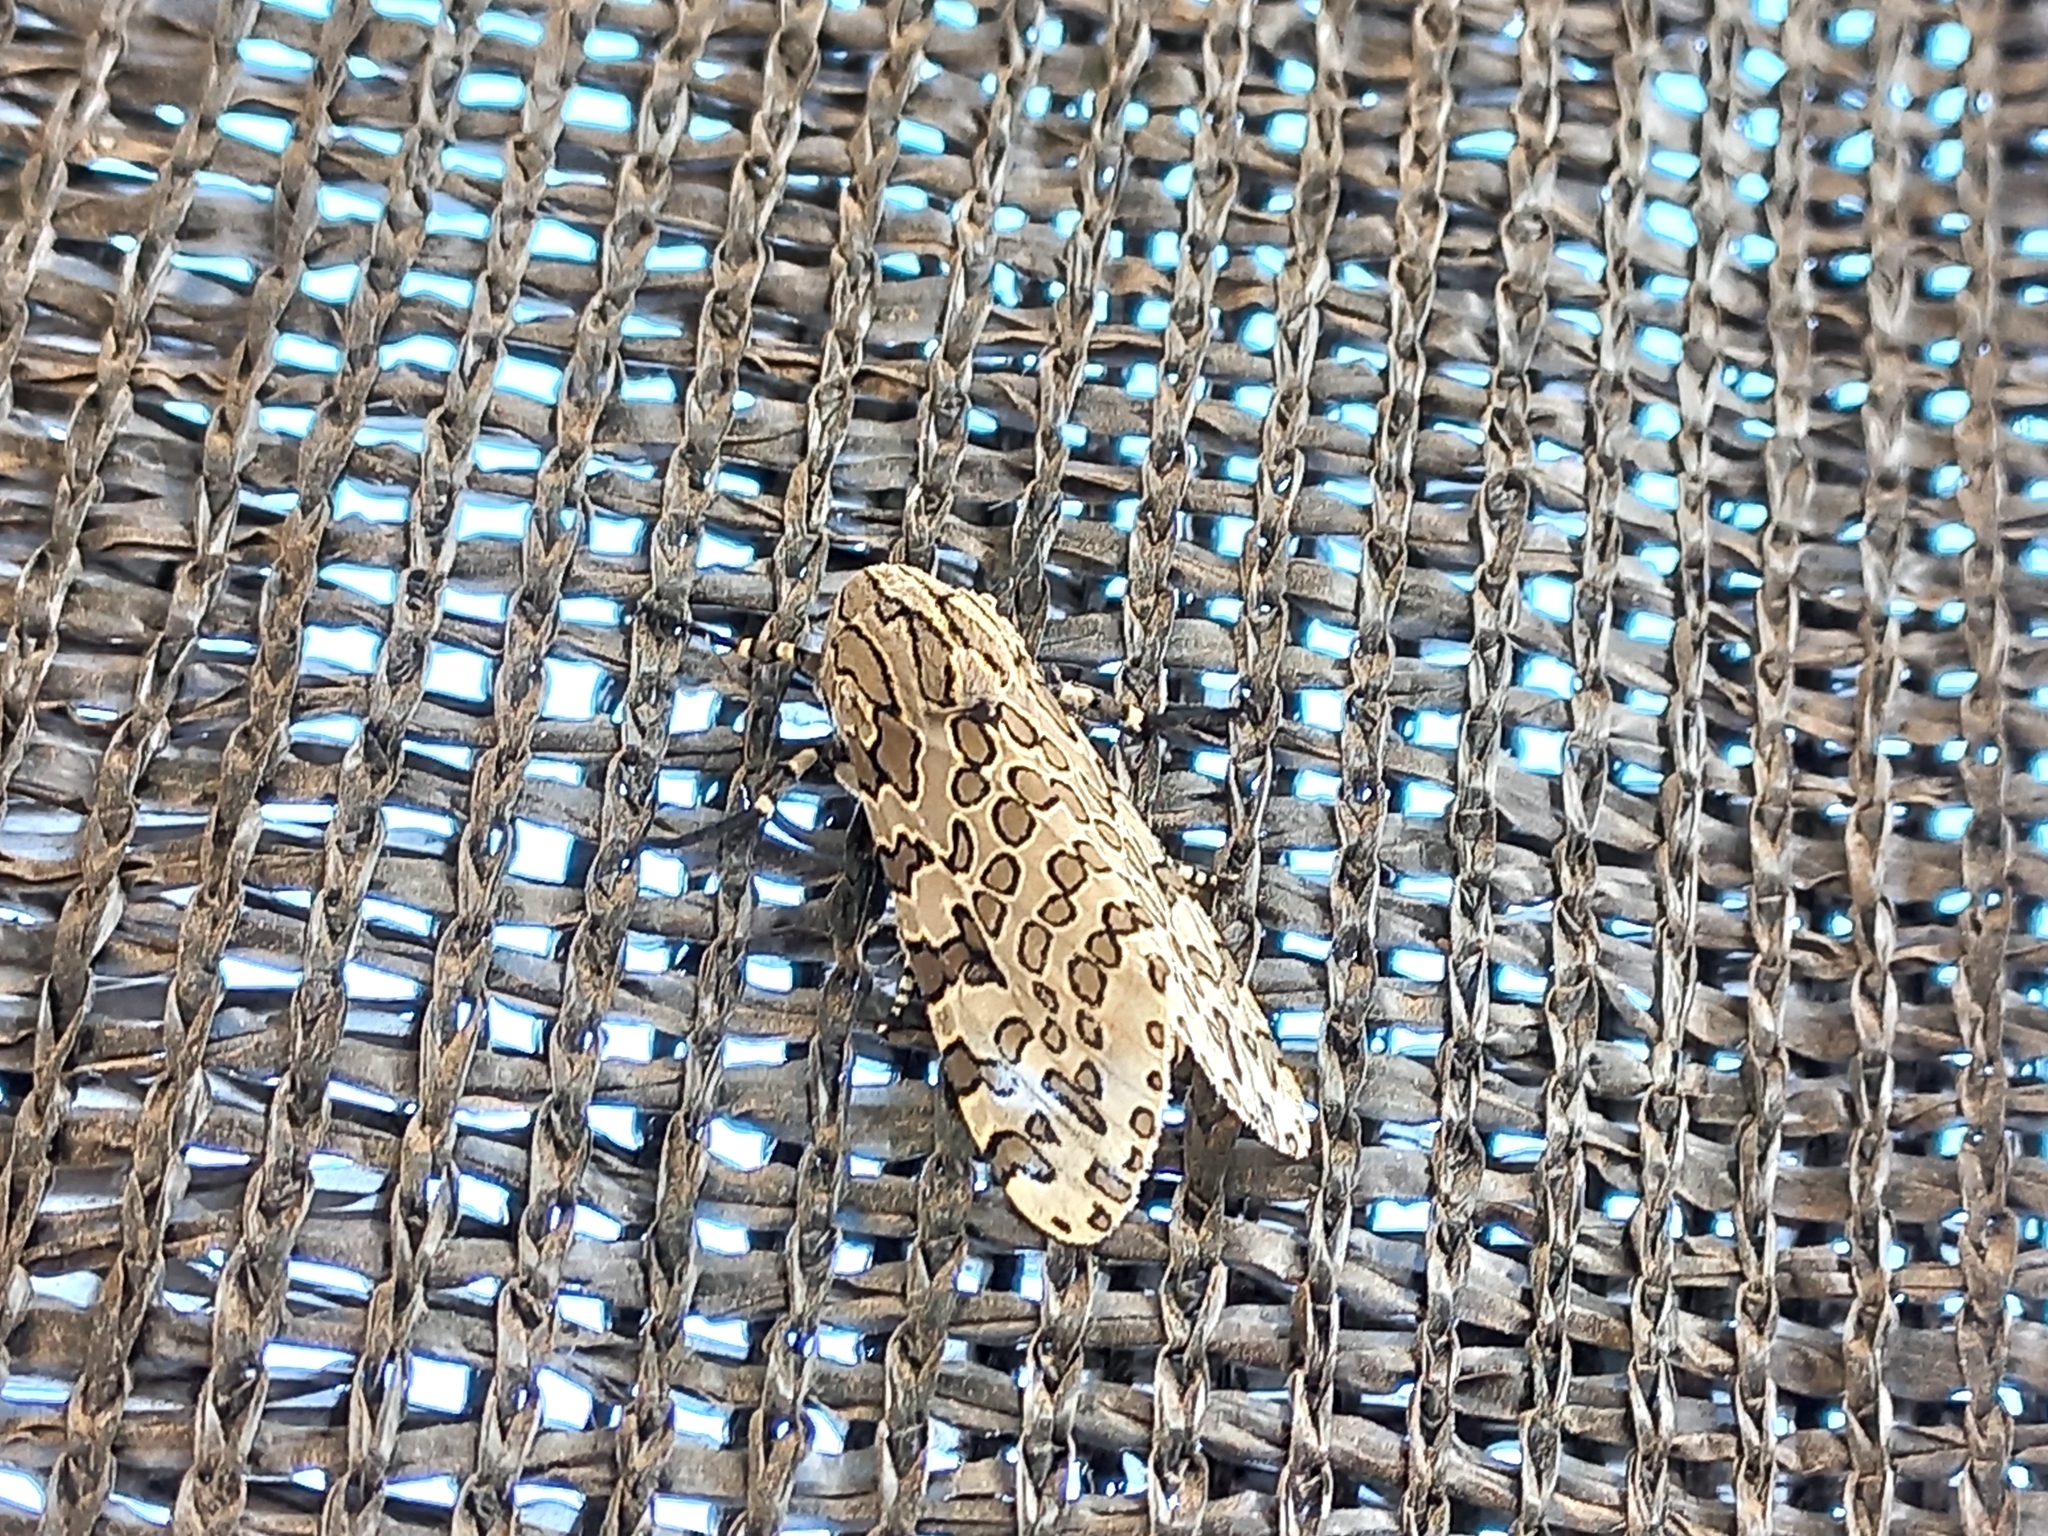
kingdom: Animalia
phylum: Arthropoda
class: Insecta
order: Lepidoptera
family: Erebidae
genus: Hypercompe
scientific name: Hypercompe indecisa
